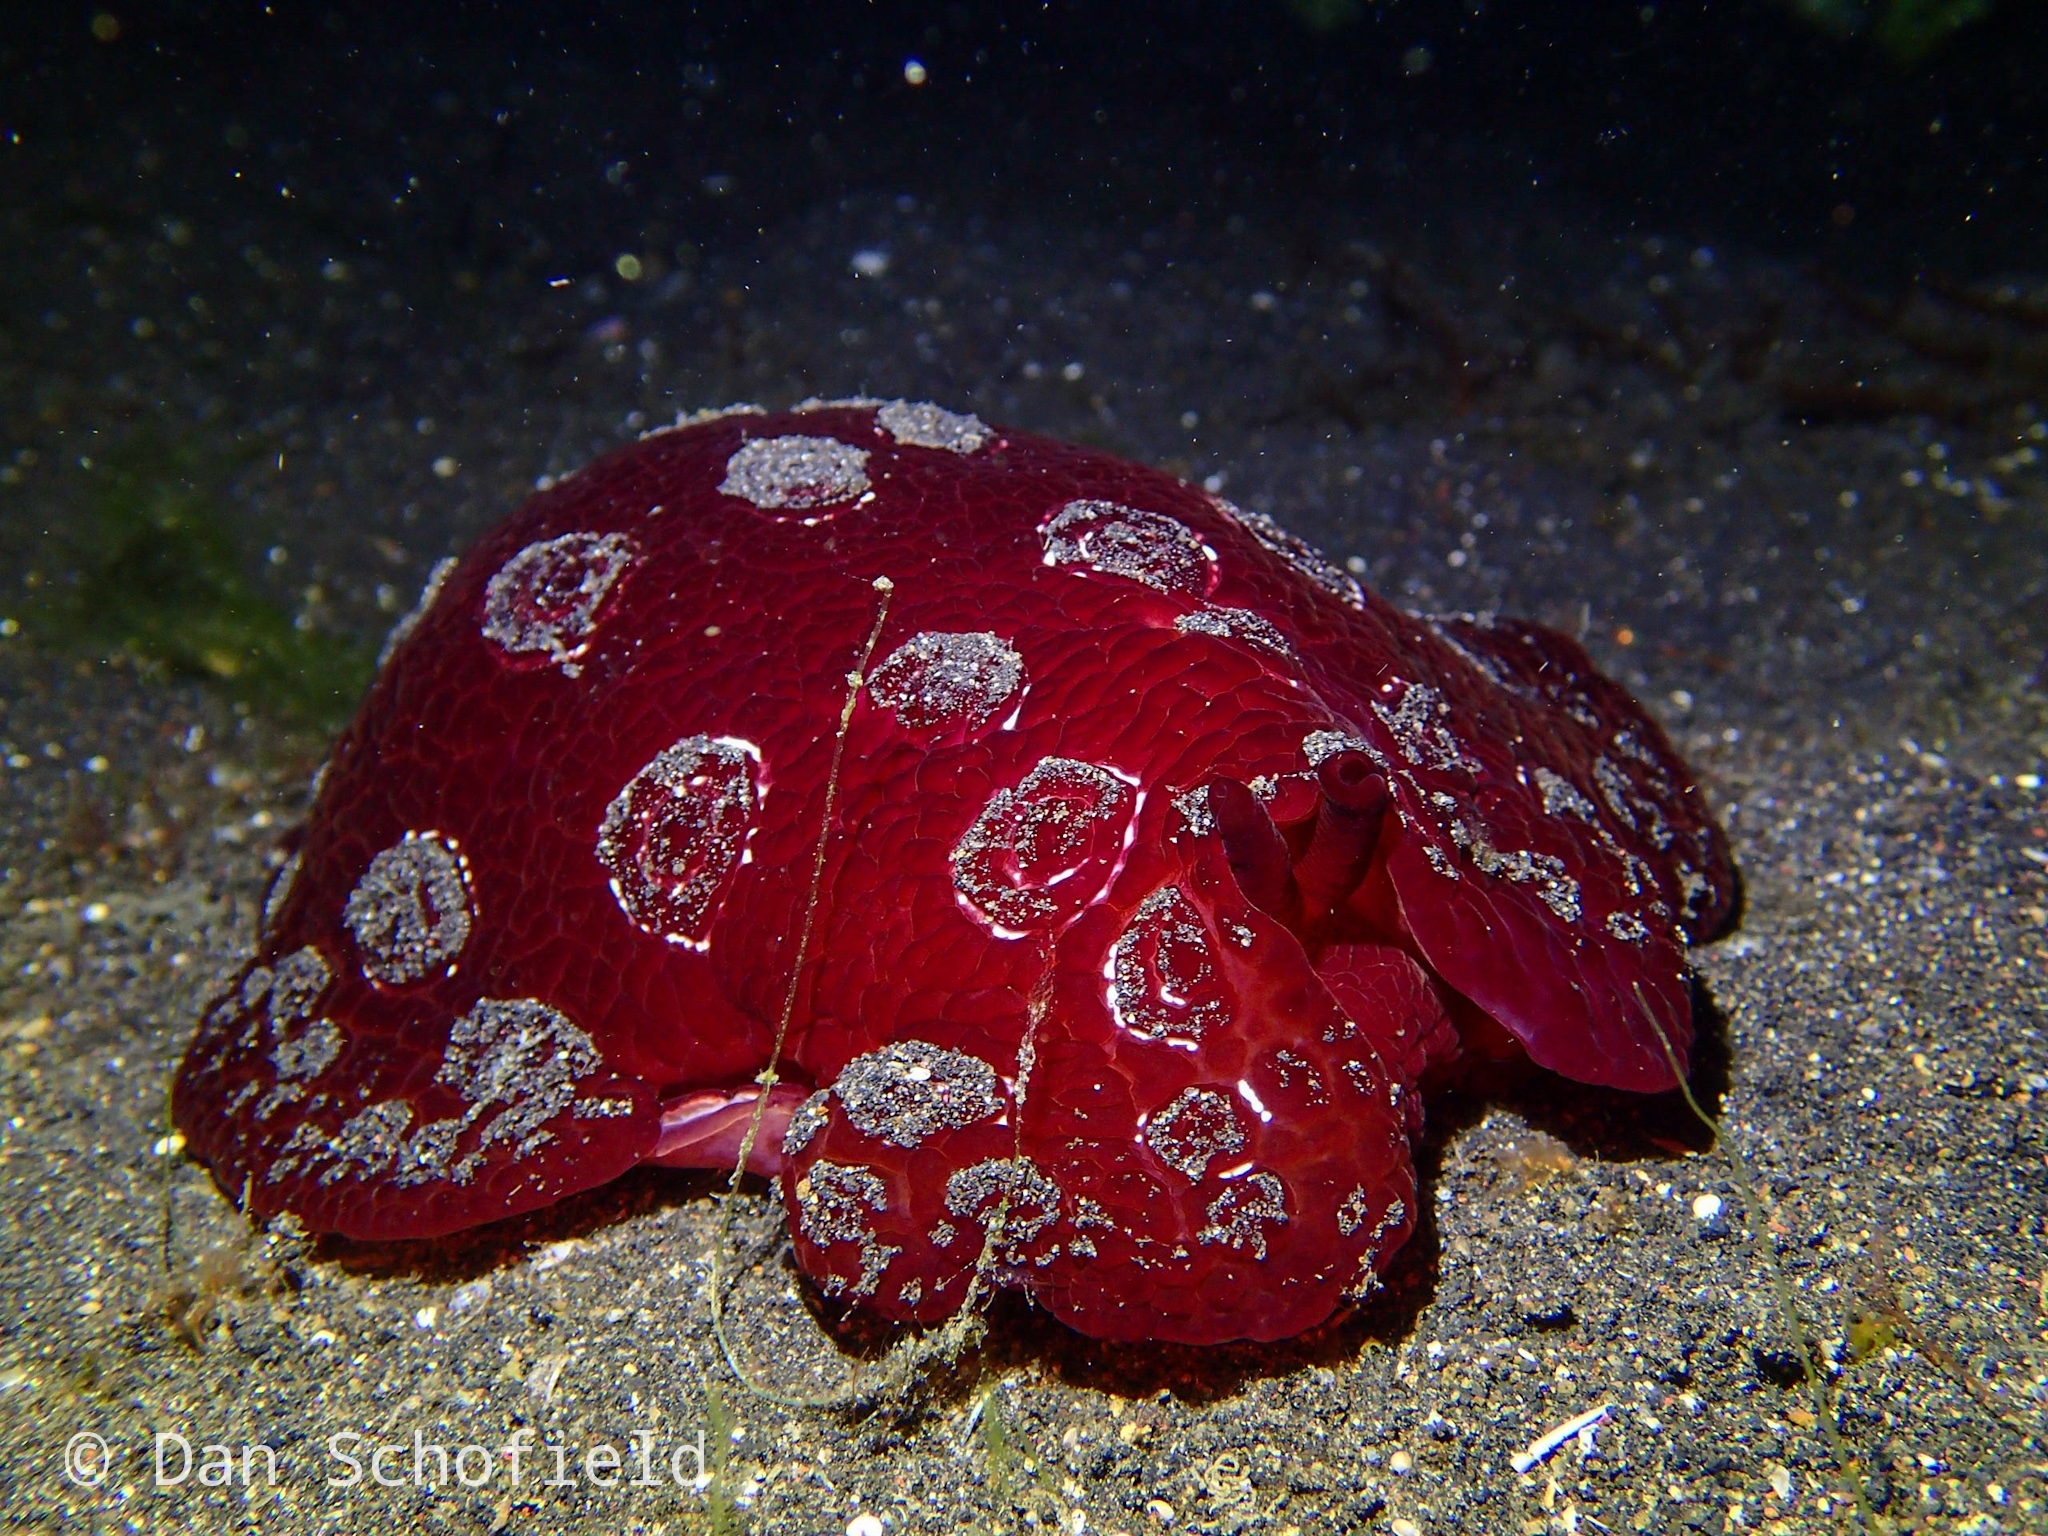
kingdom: Animalia
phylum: Mollusca
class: Gastropoda
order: Pleurobranchida
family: Pleurobranchidae
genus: Pleurobranchus
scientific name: Pleurobranchus weberi
